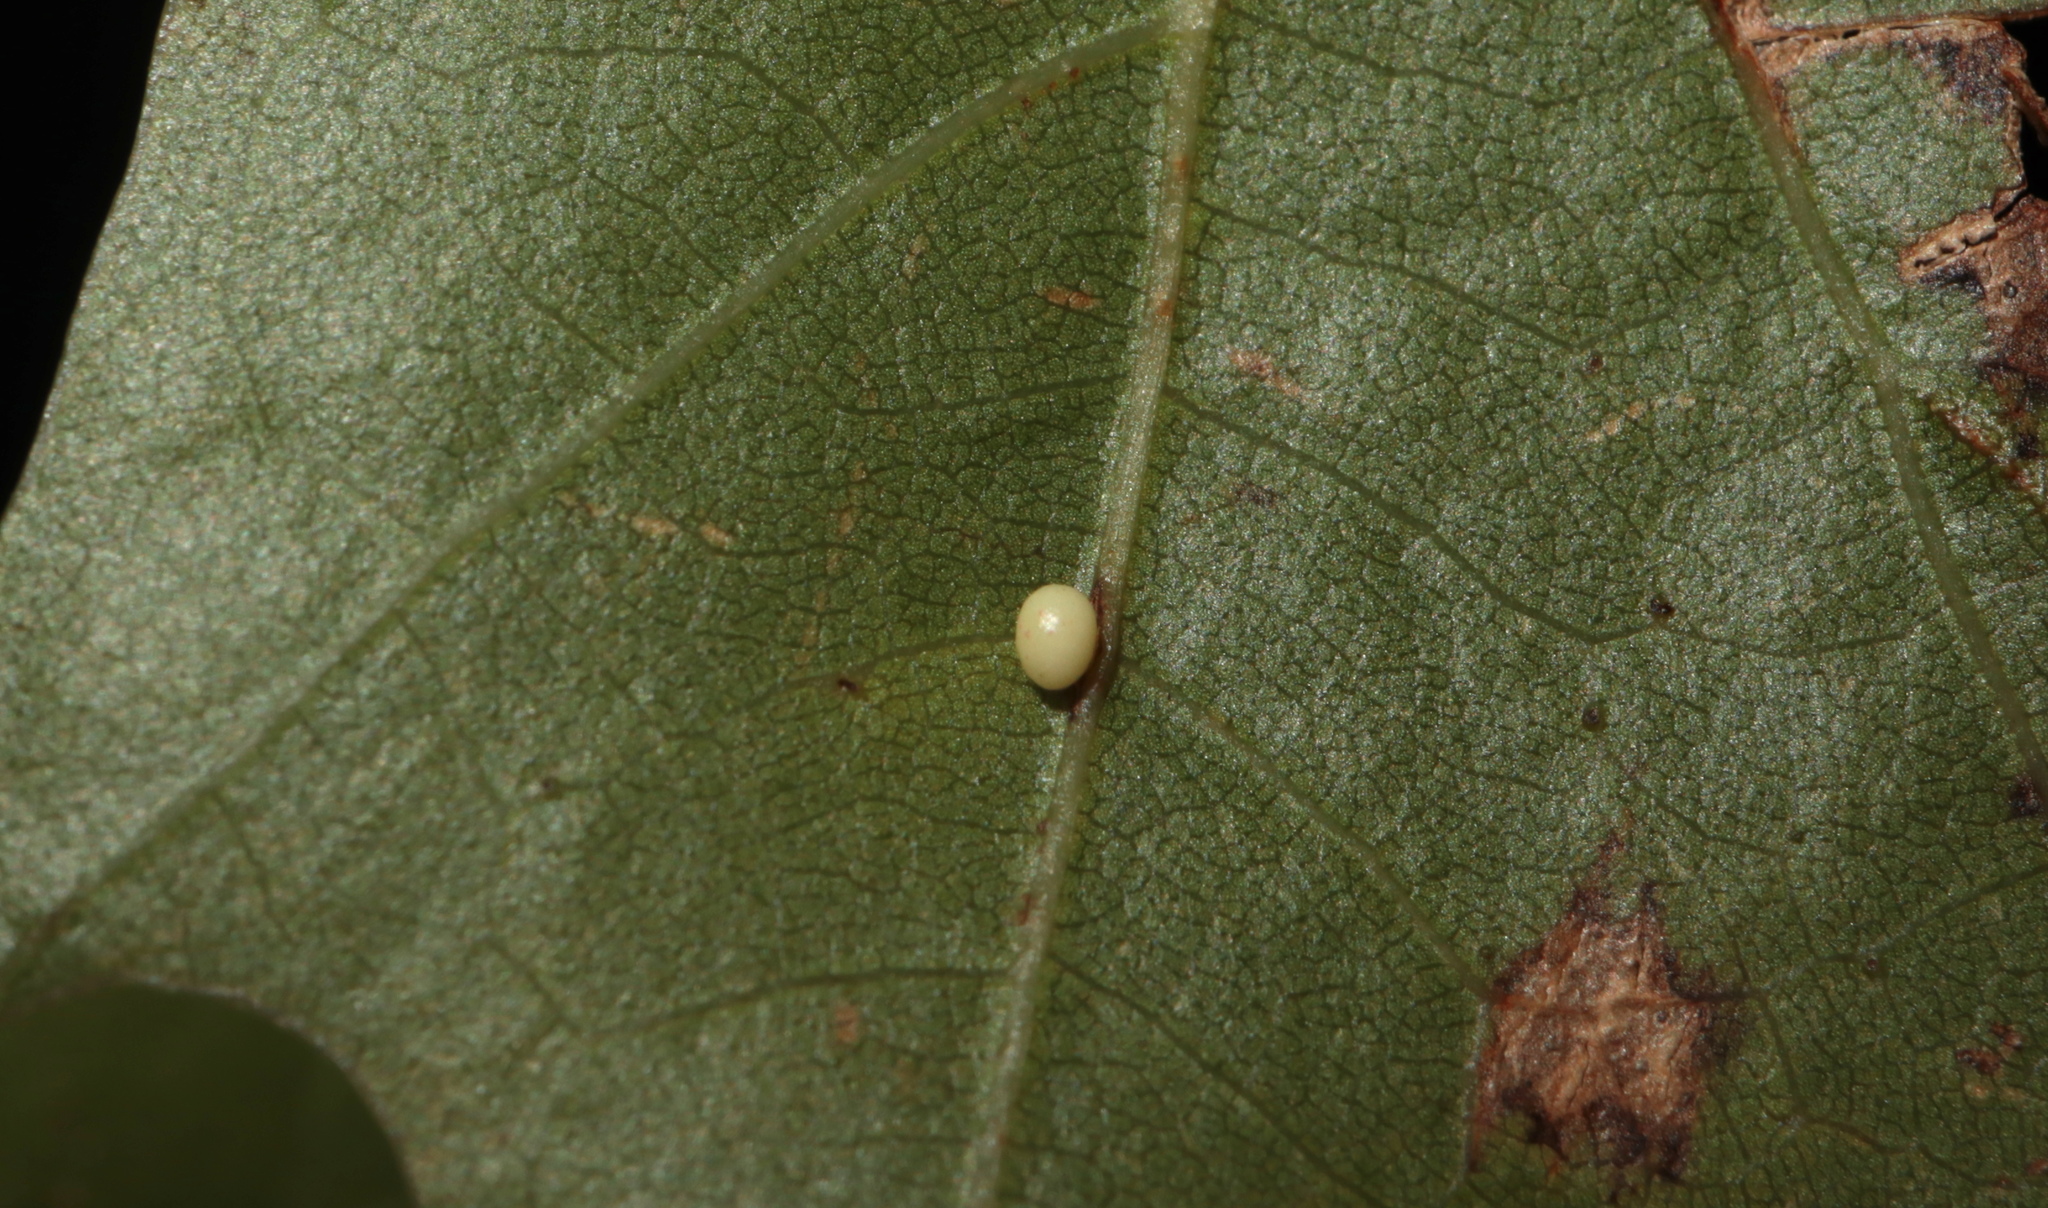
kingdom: Animalia
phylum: Arthropoda
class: Insecta
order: Hymenoptera
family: Cynipidae
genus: Zopheroteras
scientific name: Zopheroteras
